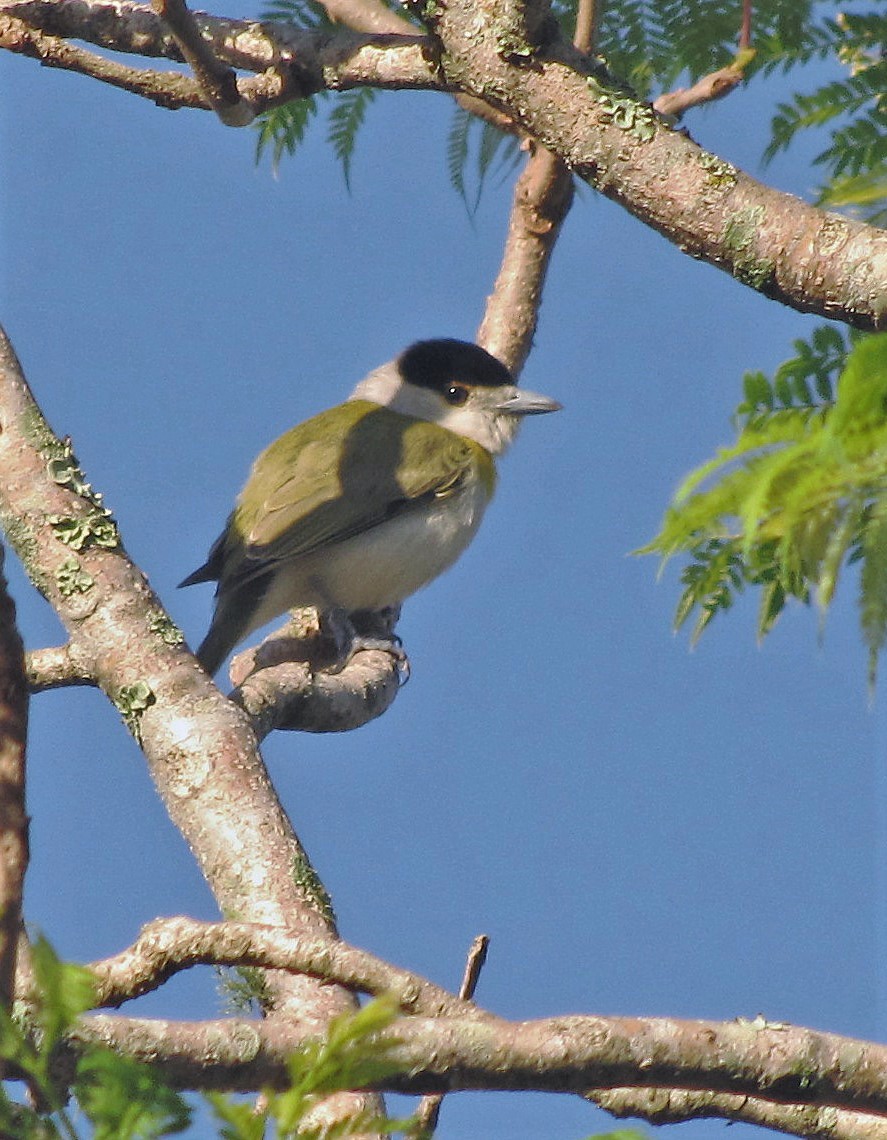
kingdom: Animalia
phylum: Chordata
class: Aves
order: Passeriformes
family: Cotingidae
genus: Pachyramphus
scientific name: Pachyramphus viridis
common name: Green-backed becard
